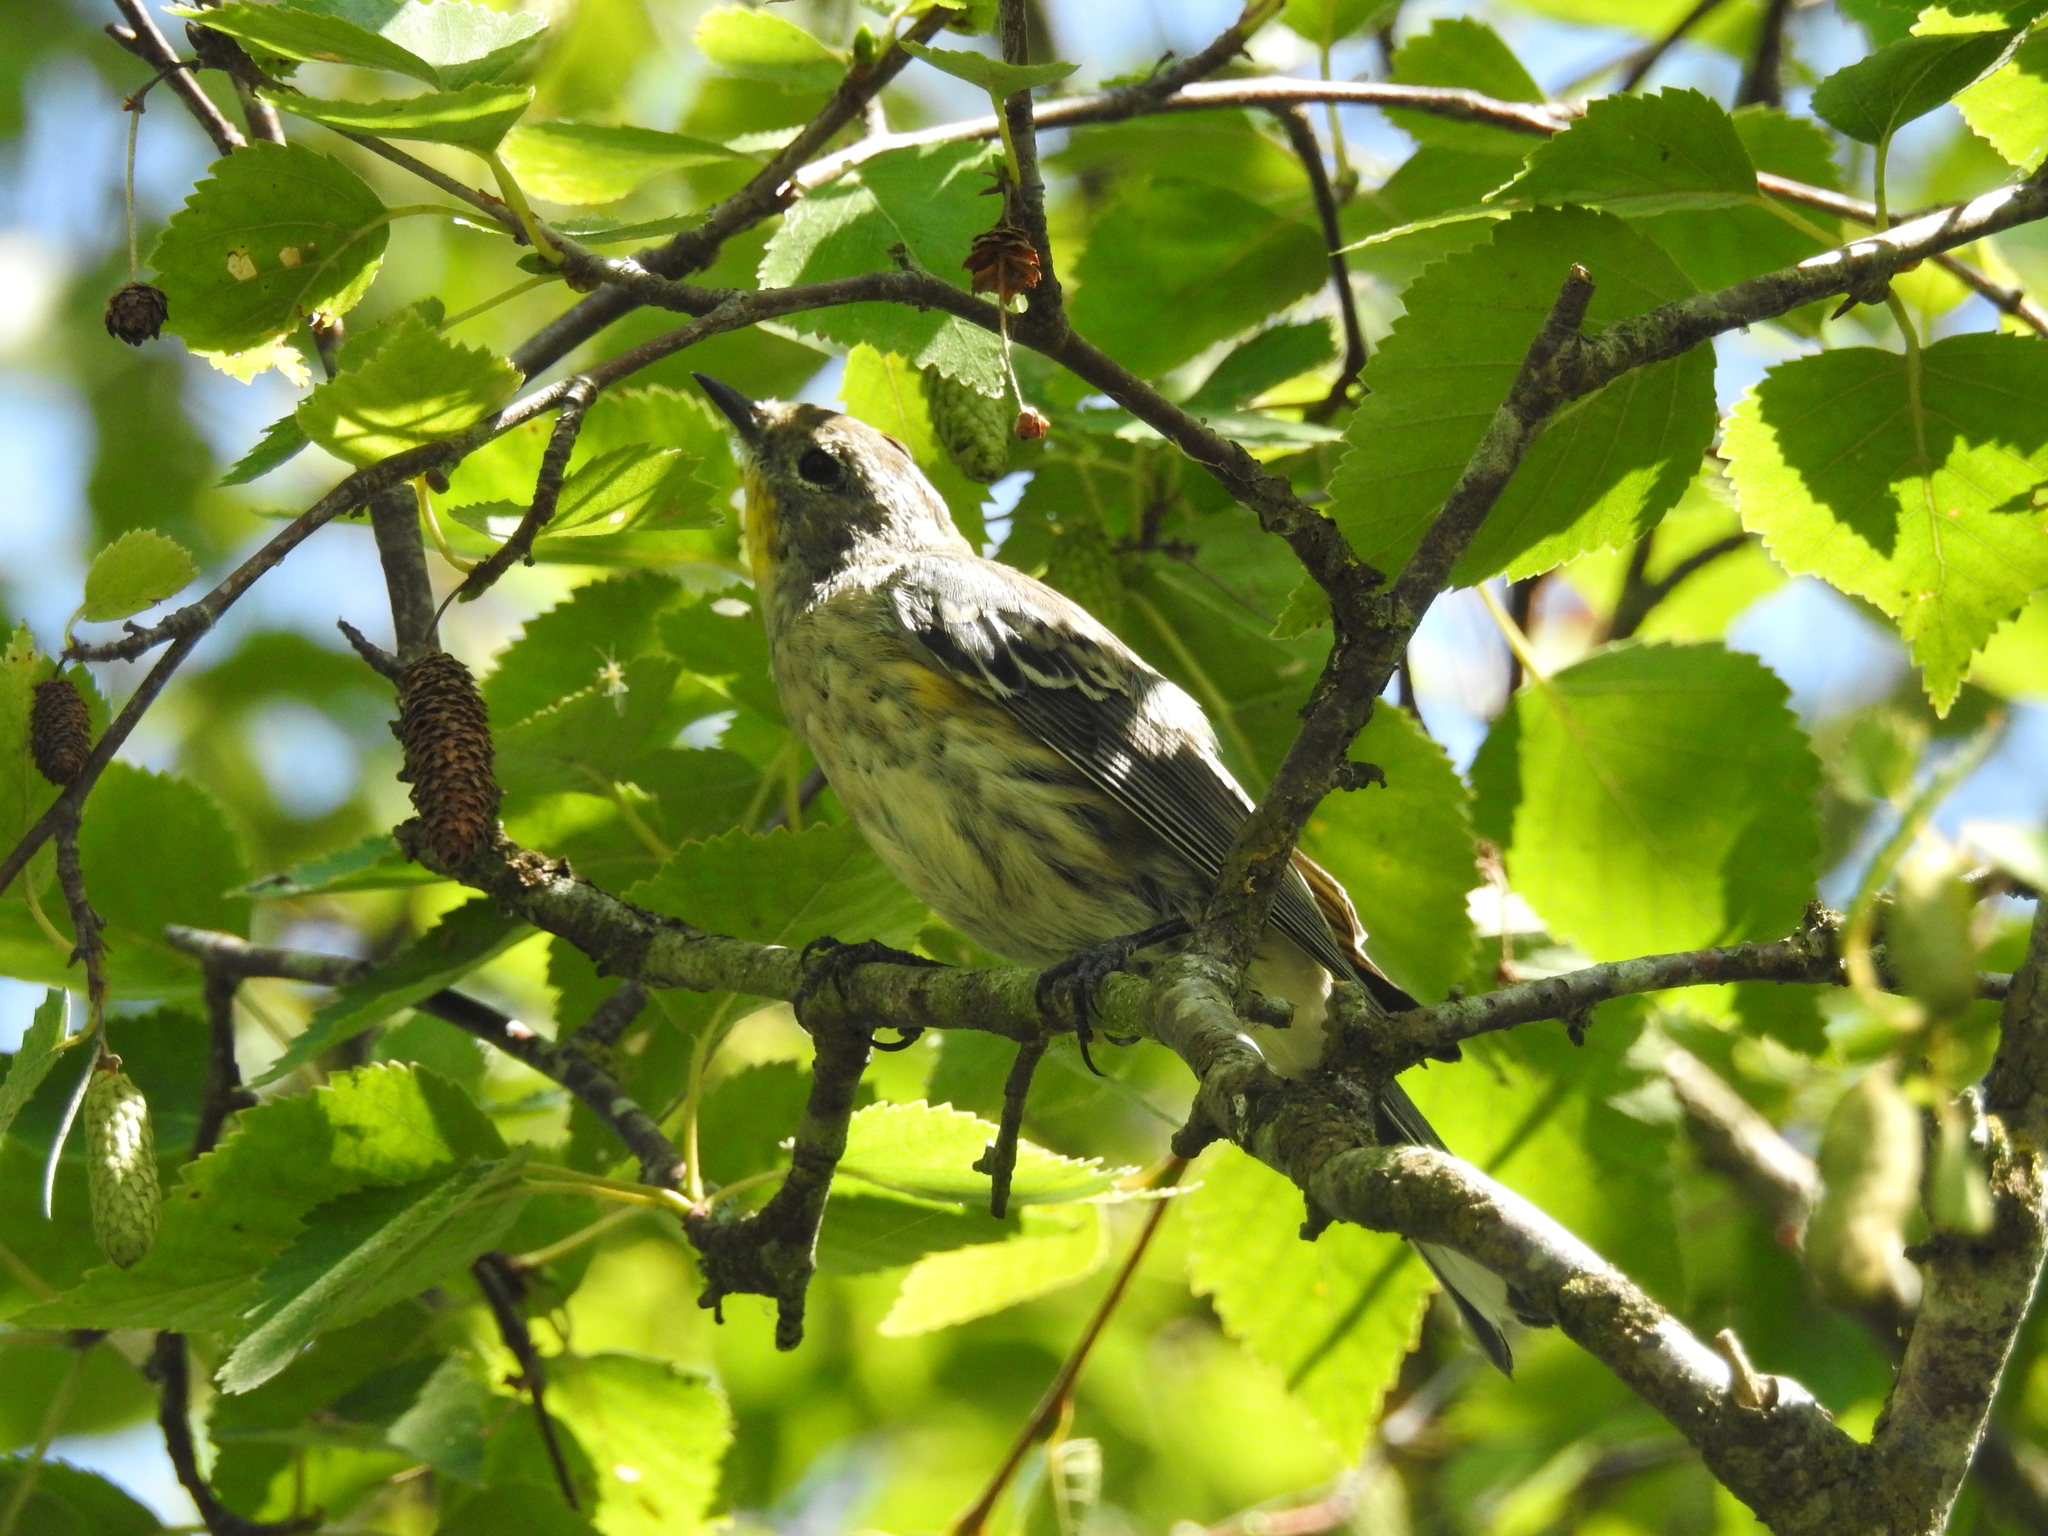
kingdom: Animalia
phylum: Chordata
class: Aves
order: Passeriformes
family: Parulidae
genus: Setophaga
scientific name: Setophaga coronata
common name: Myrtle warbler
